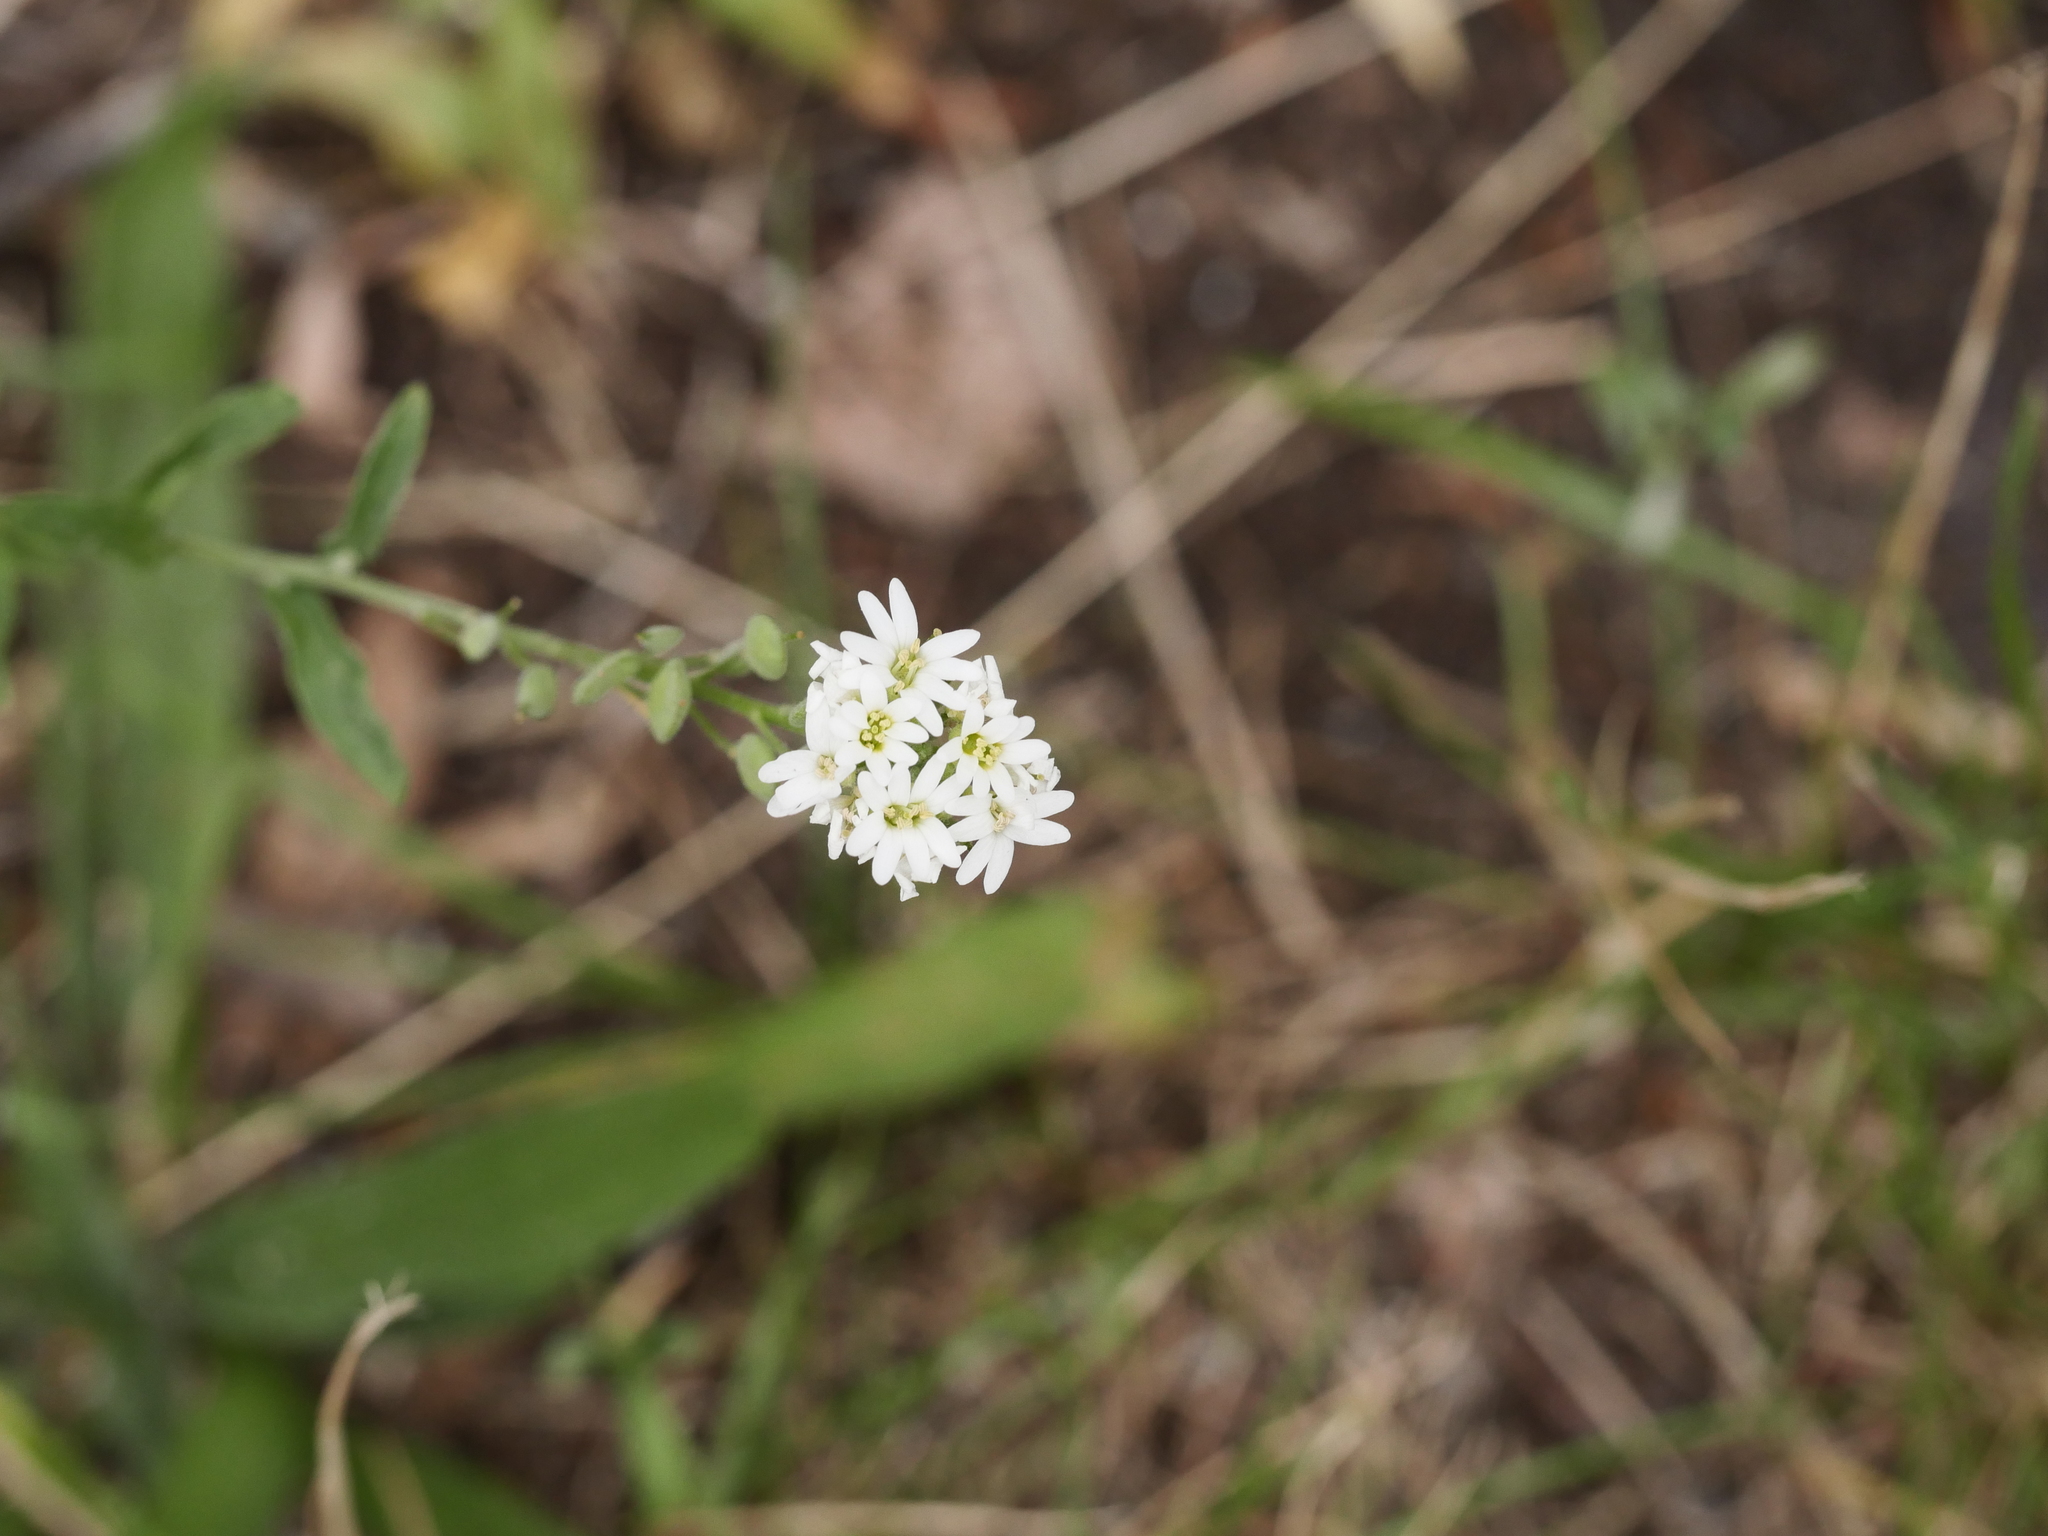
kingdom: Plantae
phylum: Tracheophyta
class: Magnoliopsida
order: Brassicales
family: Brassicaceae
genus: Berteroa
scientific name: Berteroa incana
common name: Hoary alison
